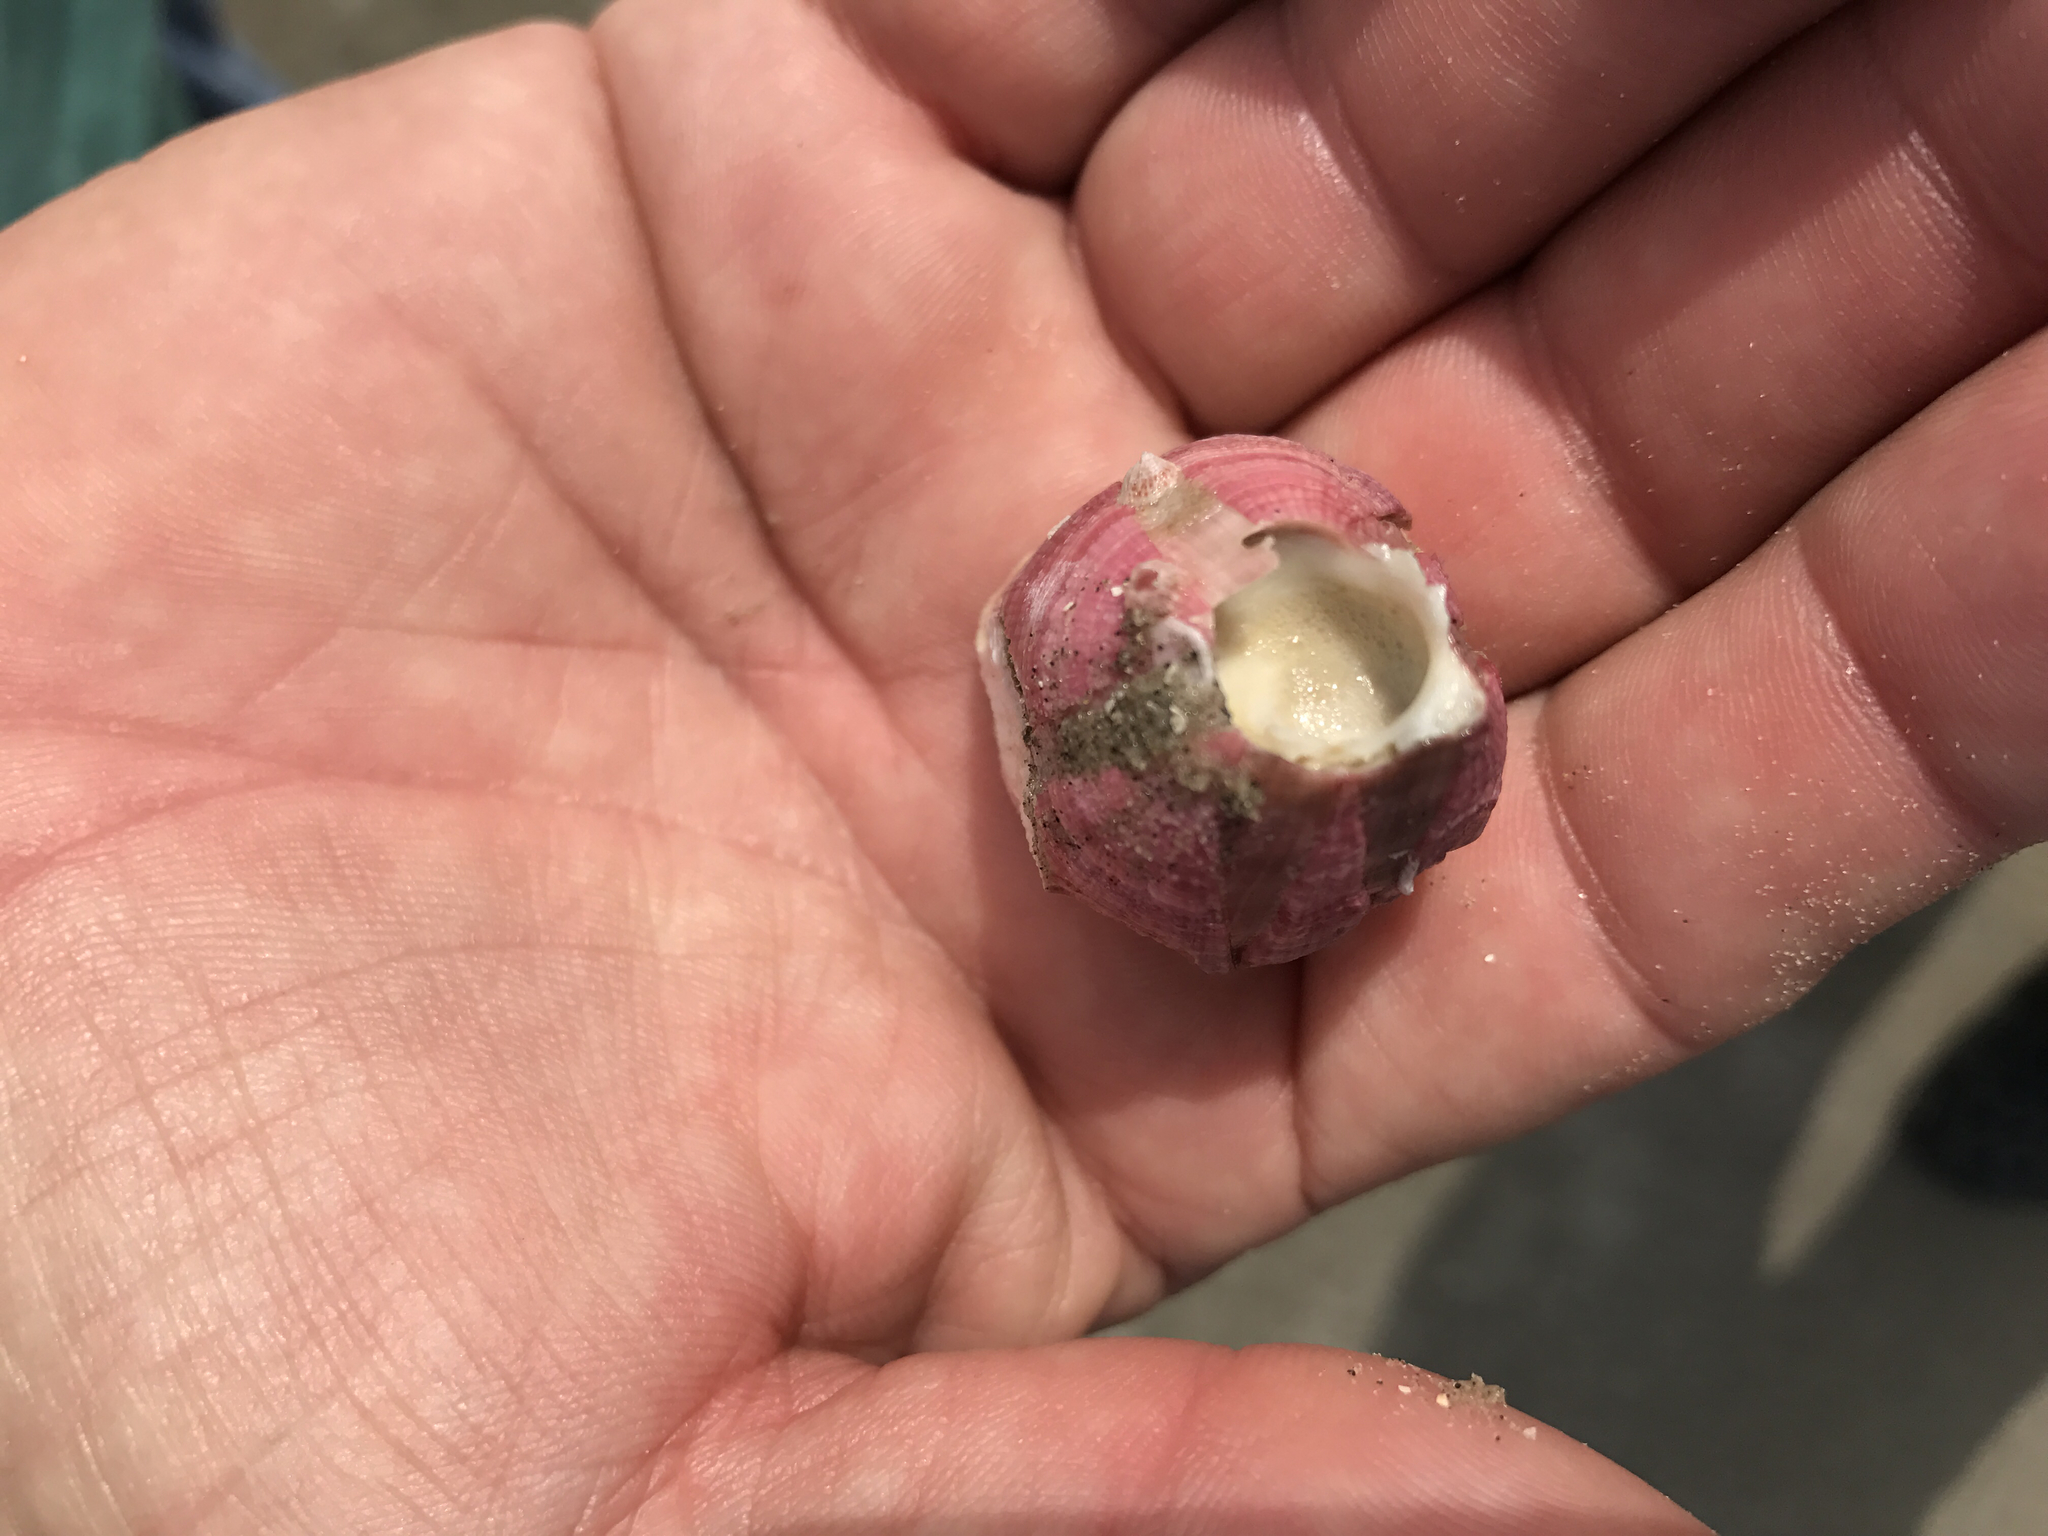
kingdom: Animalia
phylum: Arthropoda
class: Maxillopoda
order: Sessilia
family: Balanidae
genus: Megabalanus
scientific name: Megabalanus coccopoma
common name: Titan acorn barnacle
